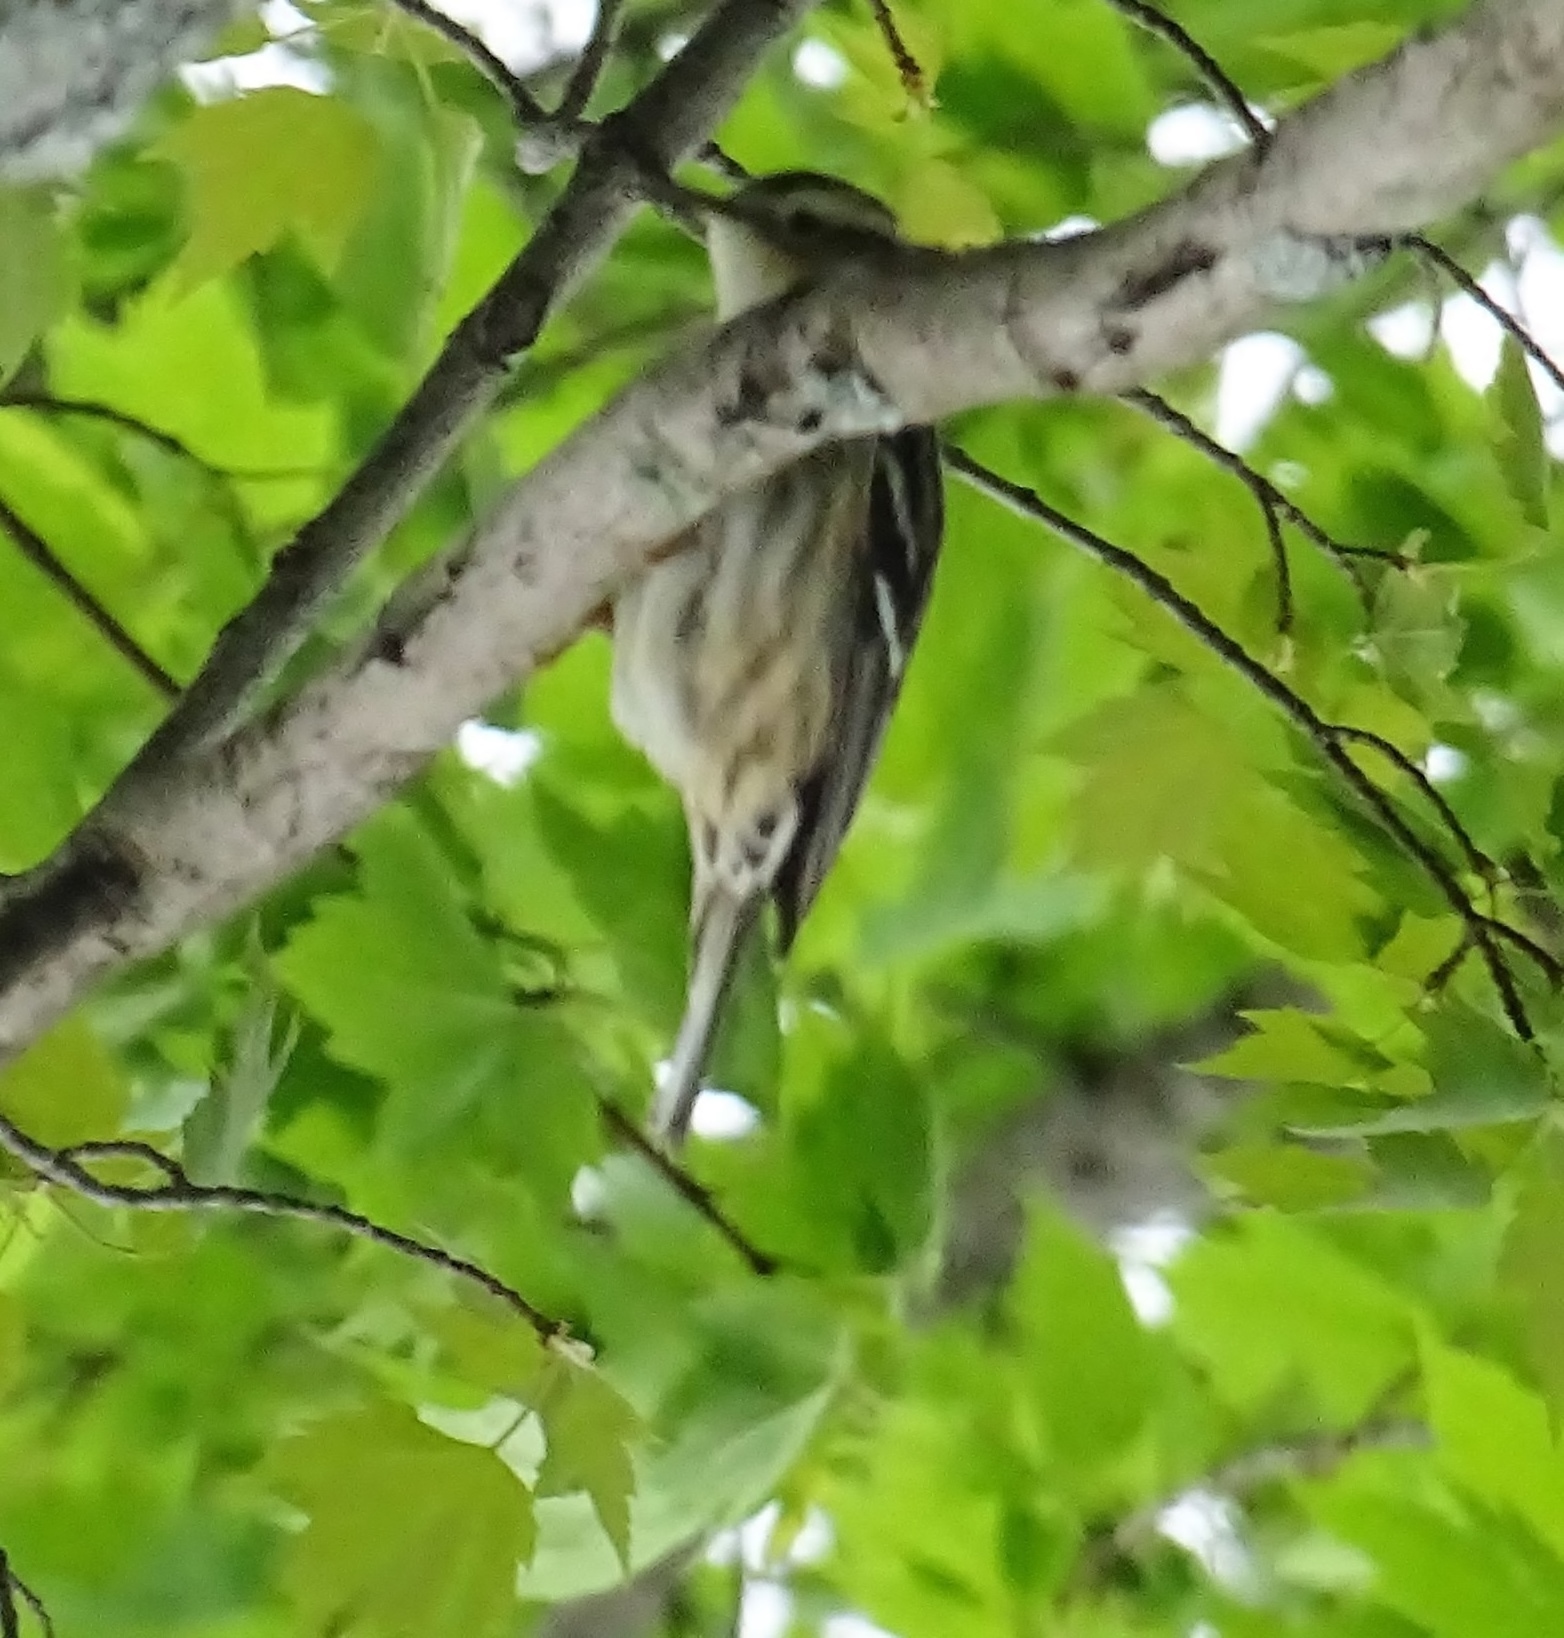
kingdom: Animalia
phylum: Chordata
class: Aves
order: Passeriformes
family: Parulidae
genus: Mniotilta
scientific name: Mniotilta varia
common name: Black-and-white warbler
